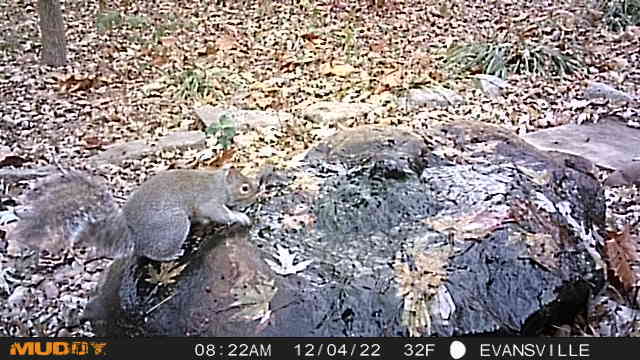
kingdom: Animalia
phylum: Chordata
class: Mammalia
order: Rodentia
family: Sciuridae
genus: Sciurus
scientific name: Sciurus carolinensis
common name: Eastern gray squirrel
